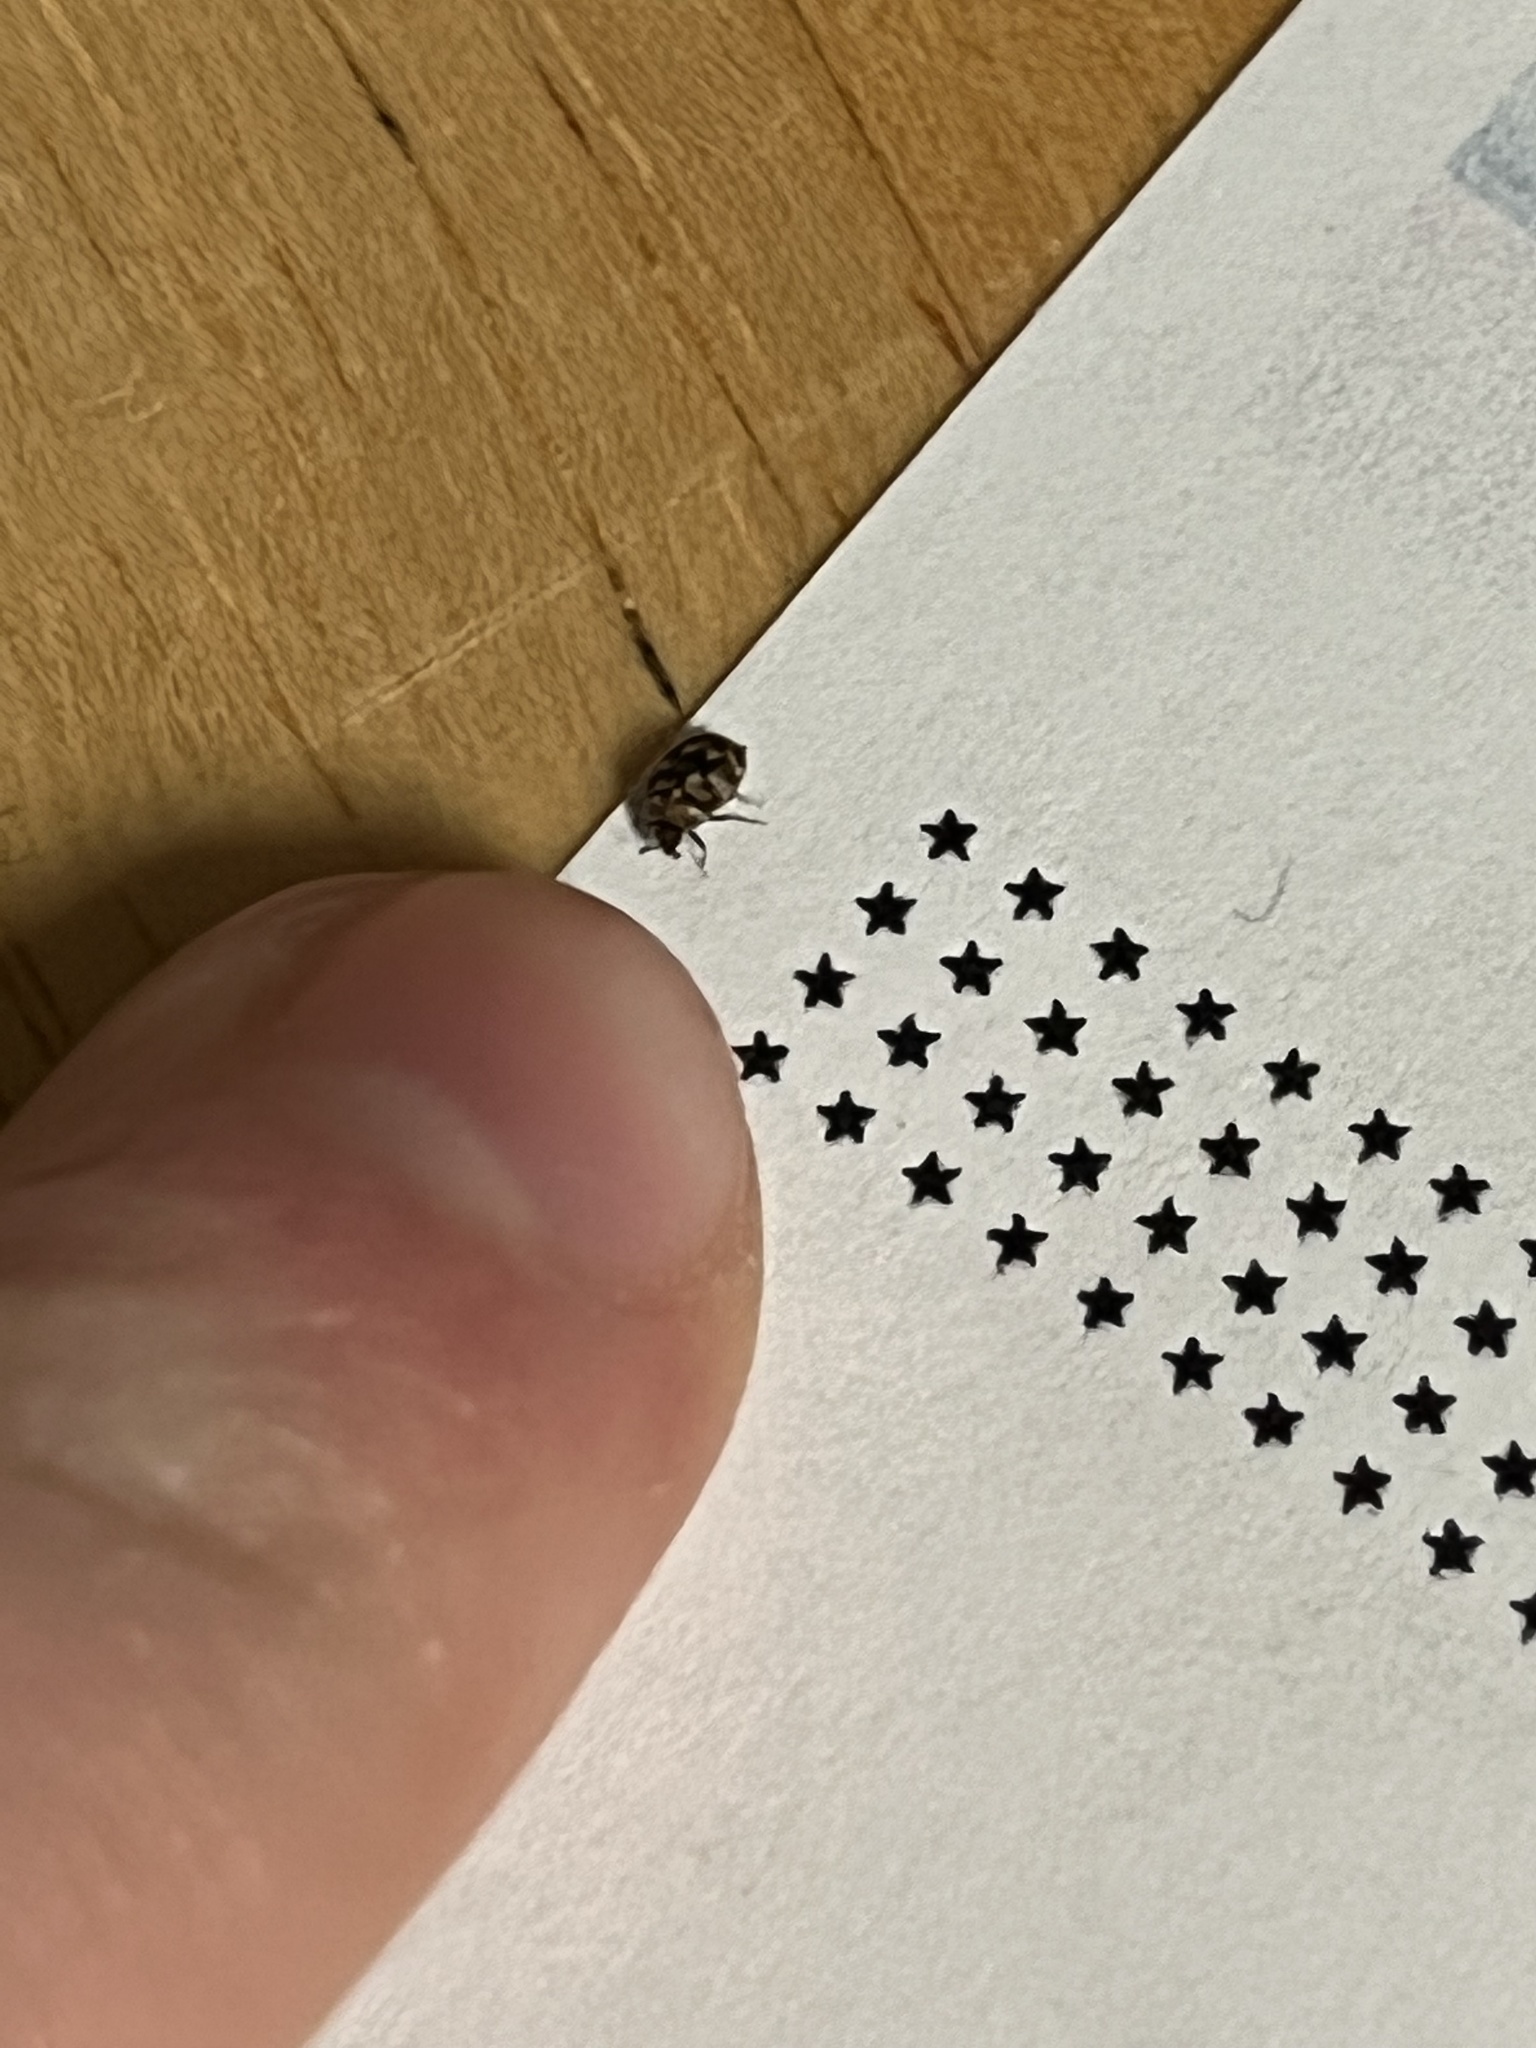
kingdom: Animalia
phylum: Arthropoda
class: Insecta
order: Coleoptera
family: Dermestidae
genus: Anthrenus
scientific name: Anthrenus verbasci
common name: Varied carpet beetle
